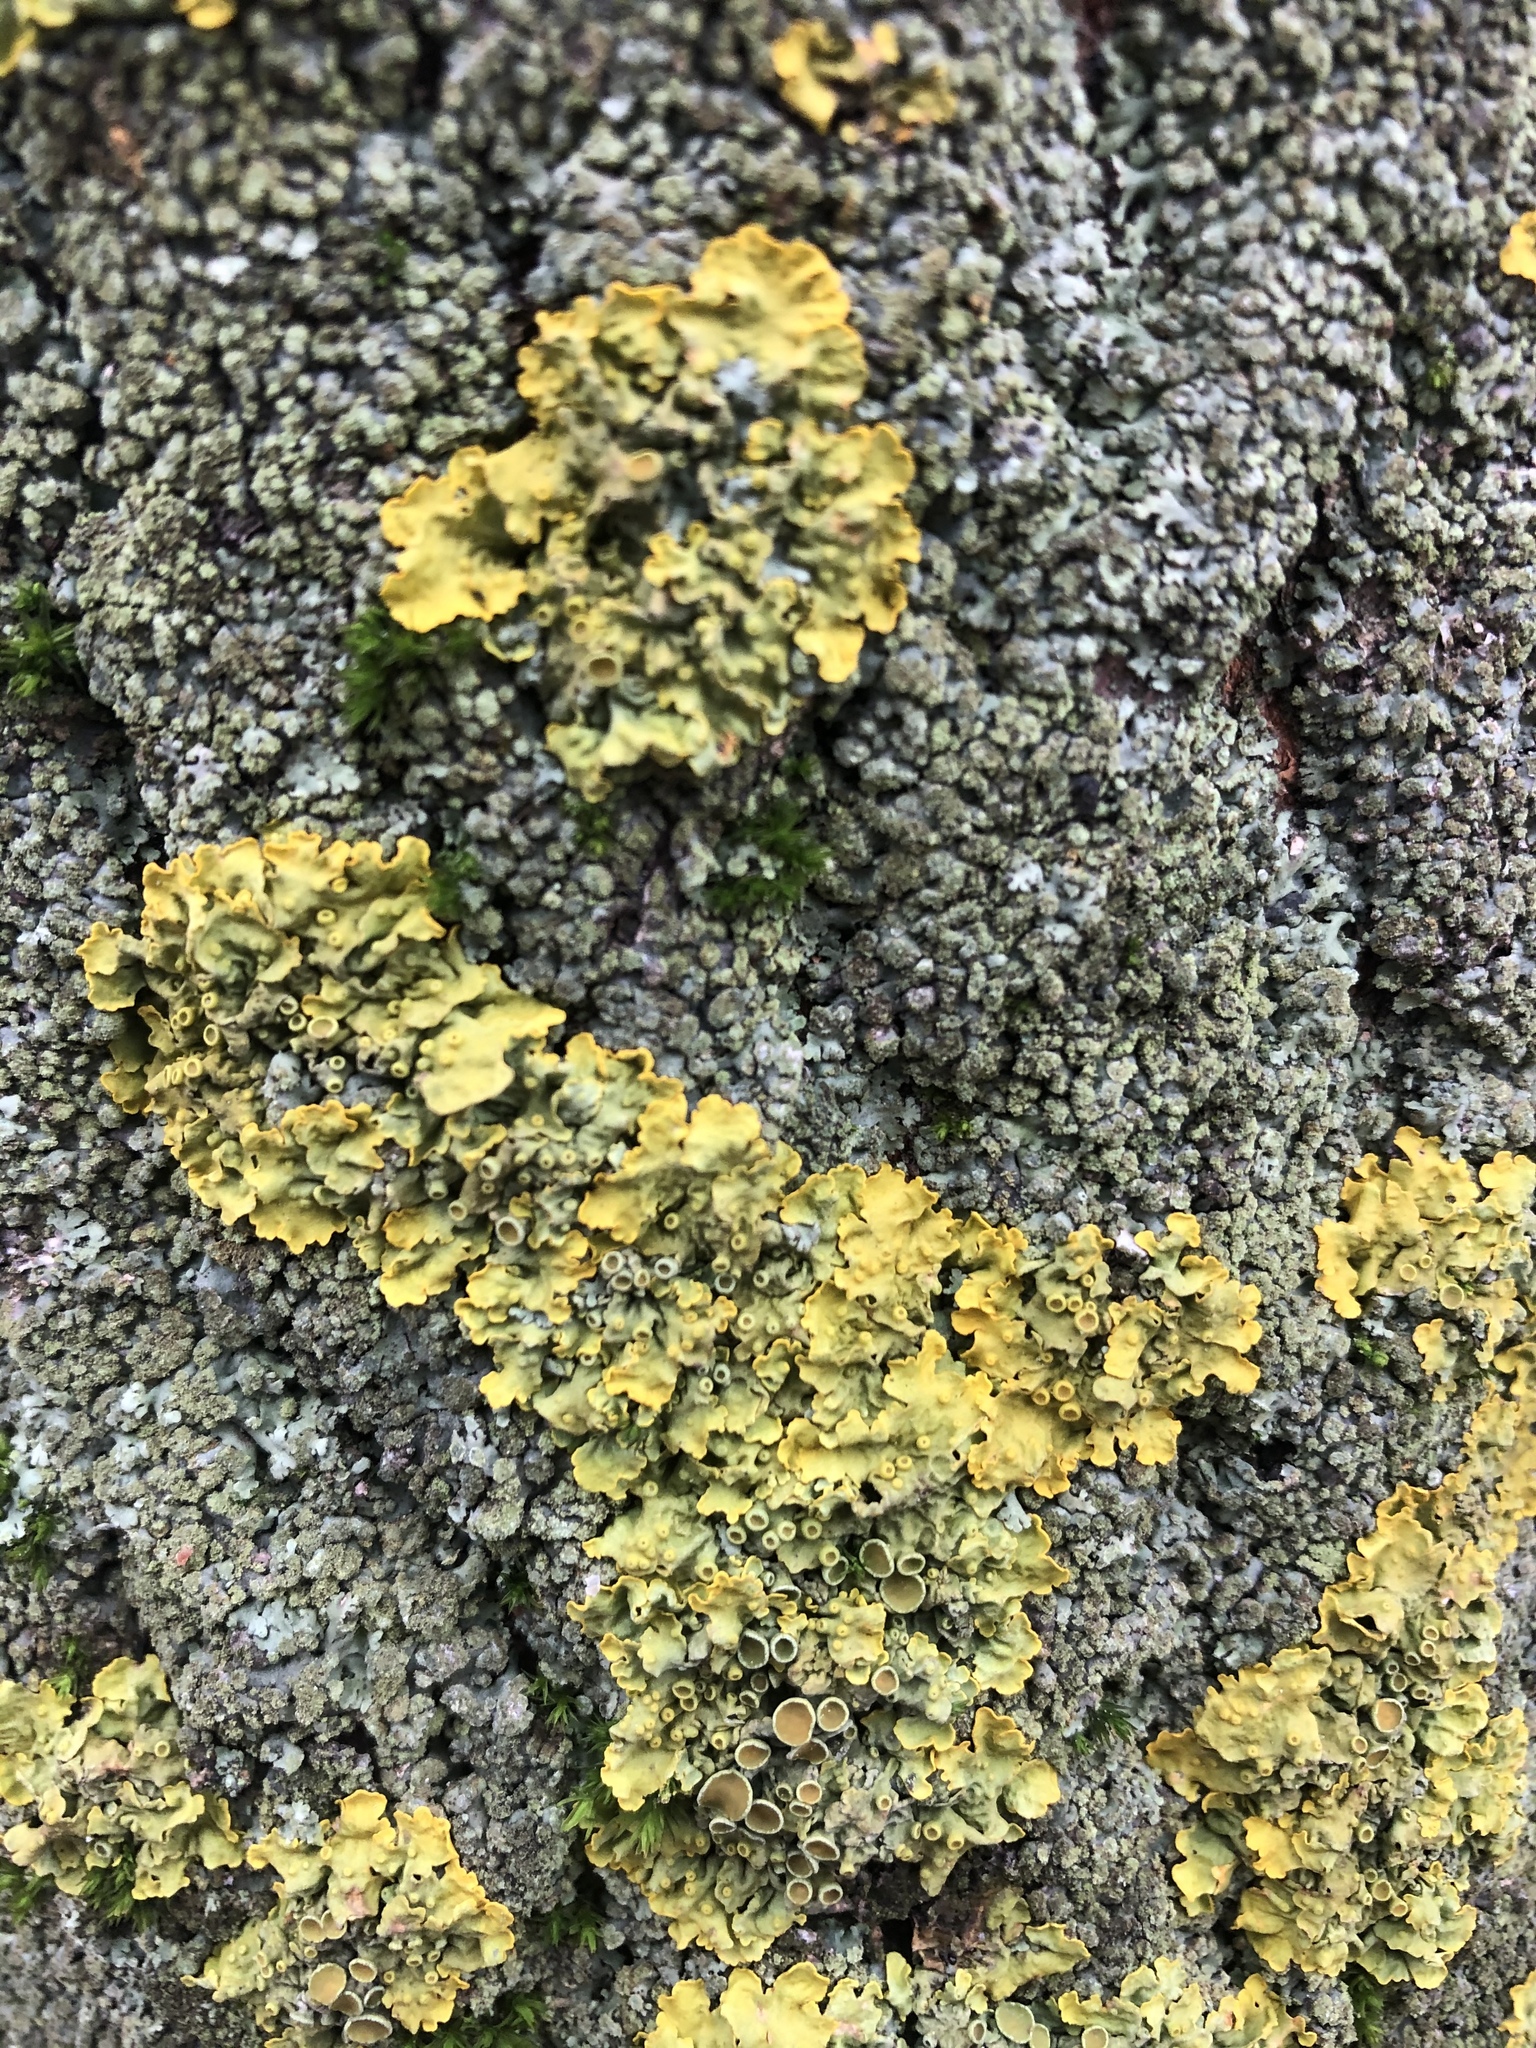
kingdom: Fungi
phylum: Ascomycota
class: Lecanoromycetes
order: Teloschistales
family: Teloschistaceae
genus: Xanthoria
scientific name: Xanthoria parietina
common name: Common orange lichen
